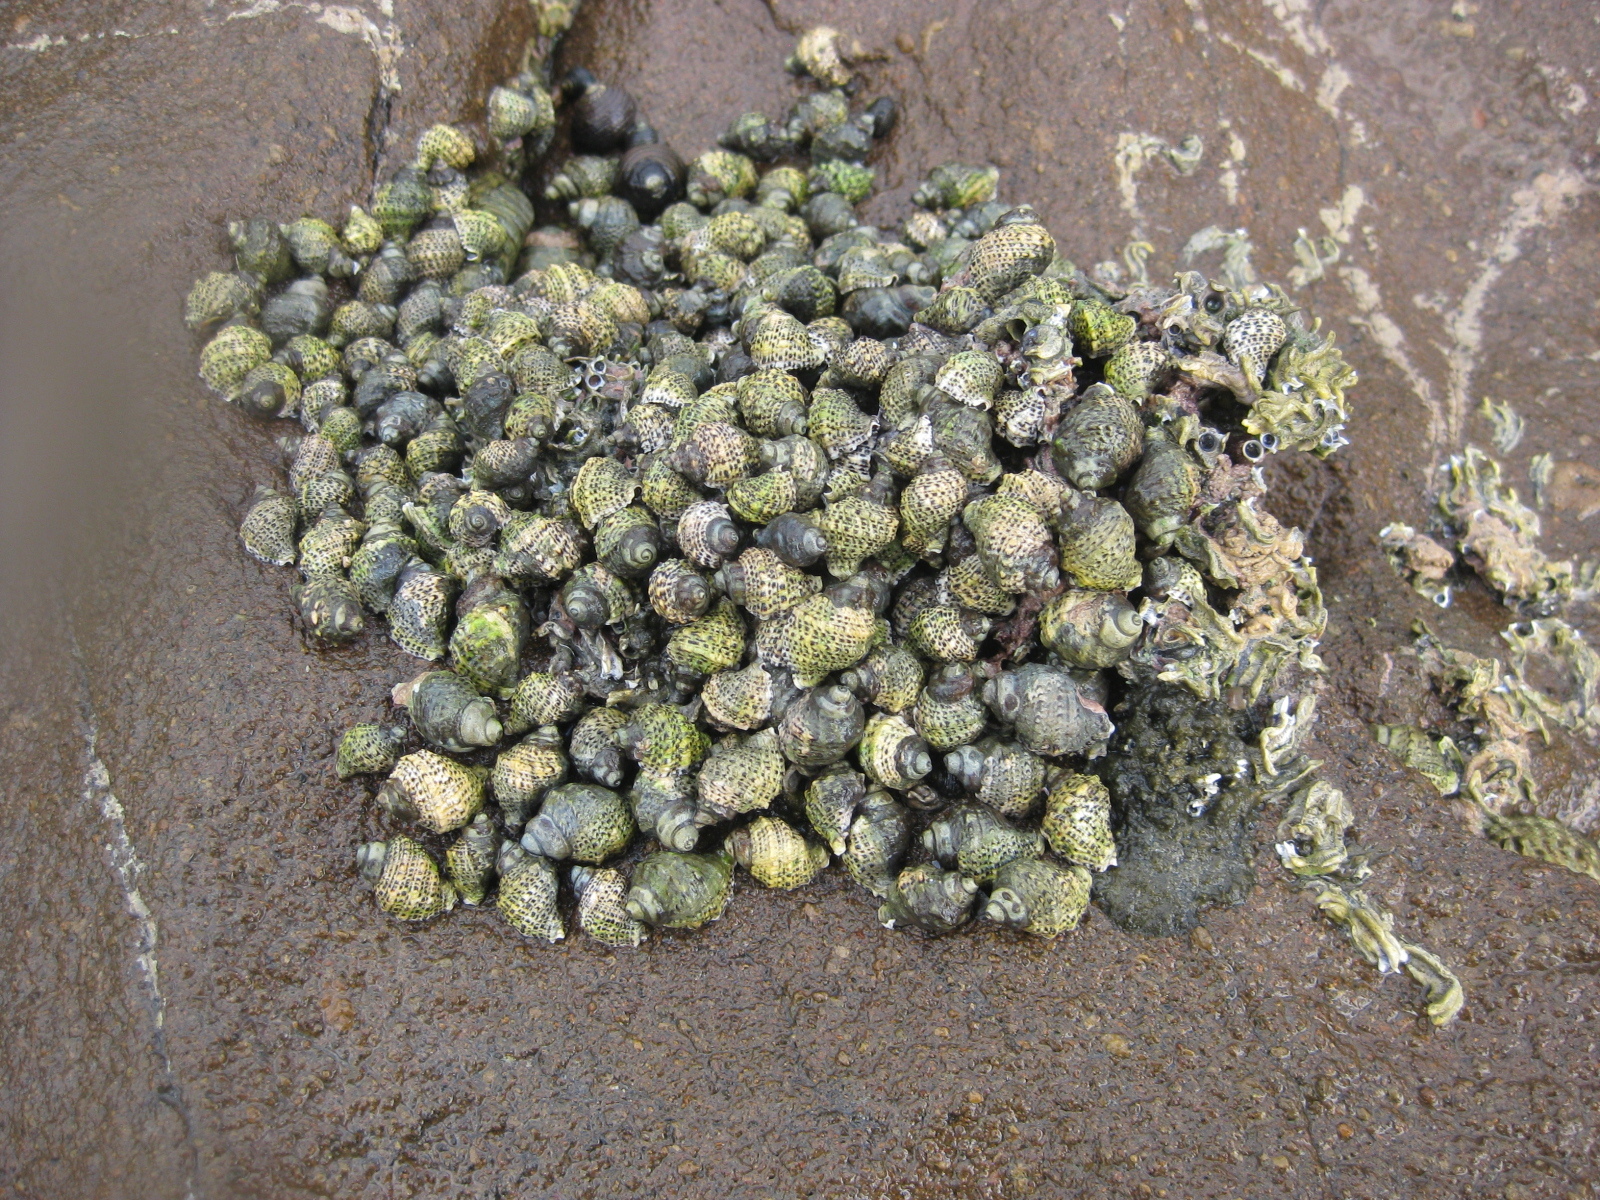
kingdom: Animalia
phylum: Mollusca
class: Gastropoda
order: Neogastropoda
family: Muricidae
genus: Haustrum
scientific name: Haustrum scobina
